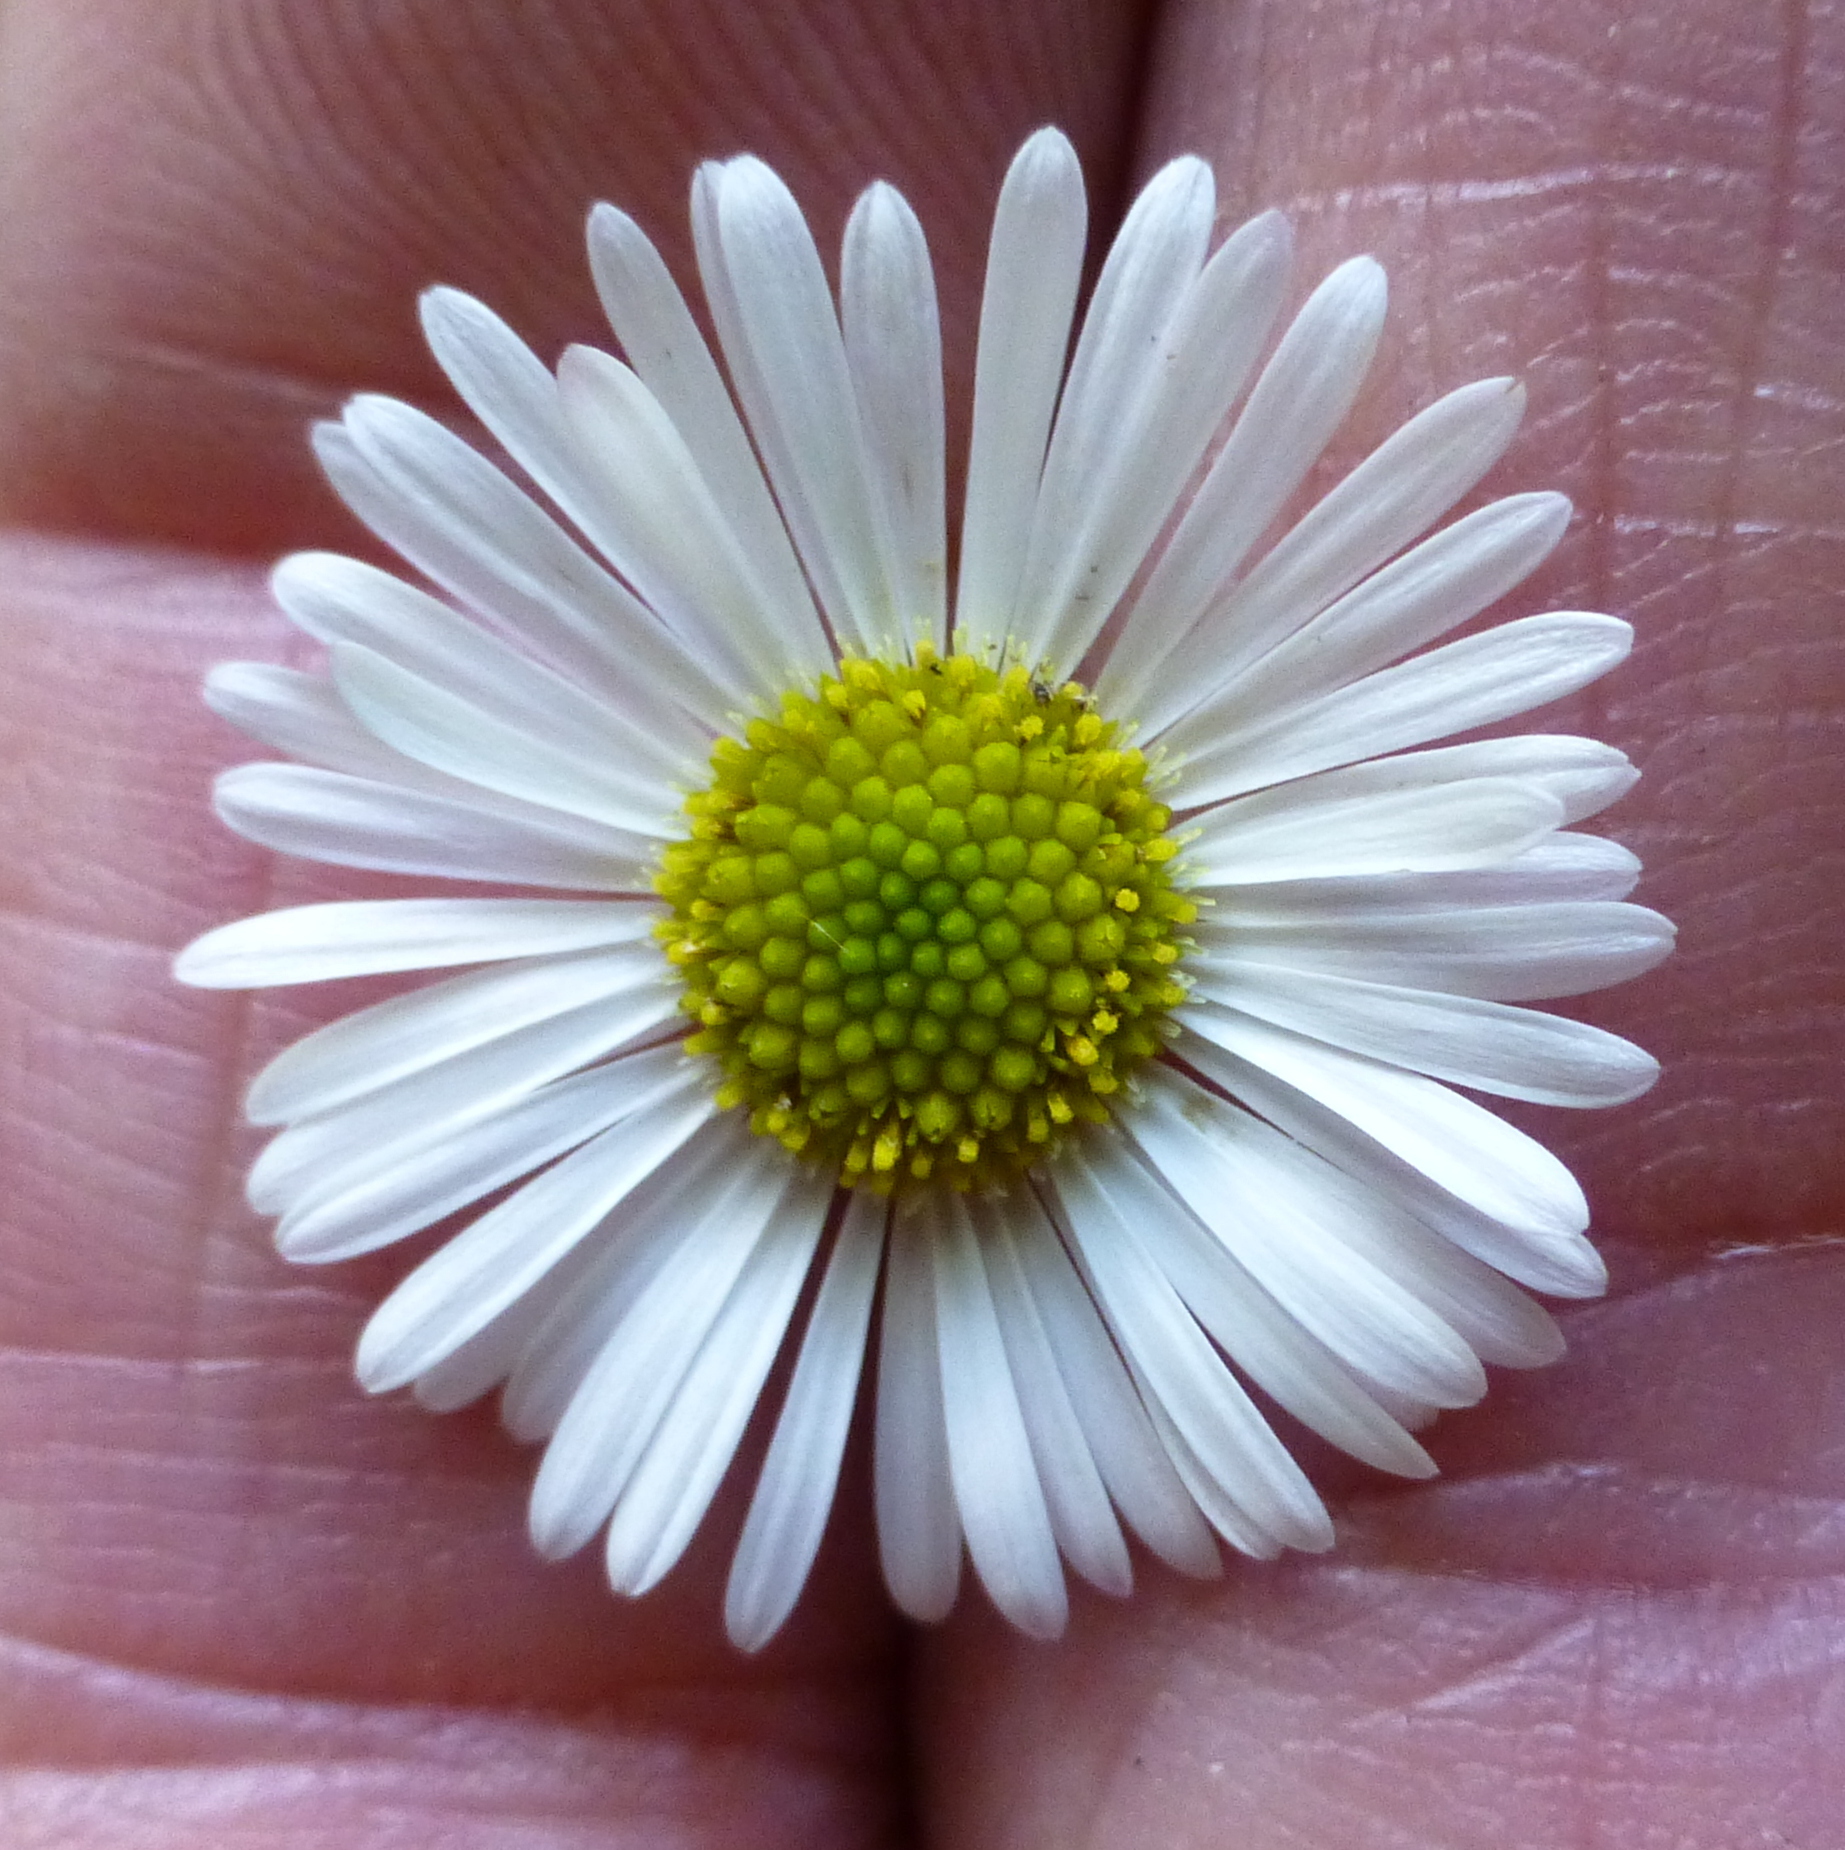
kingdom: Plantae
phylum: Tracheophyta
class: Magnoliopsida
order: Asterales
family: Asteraceae
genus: Erigeron
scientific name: Erigeron karvinskianus
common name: Mexican fleabane
